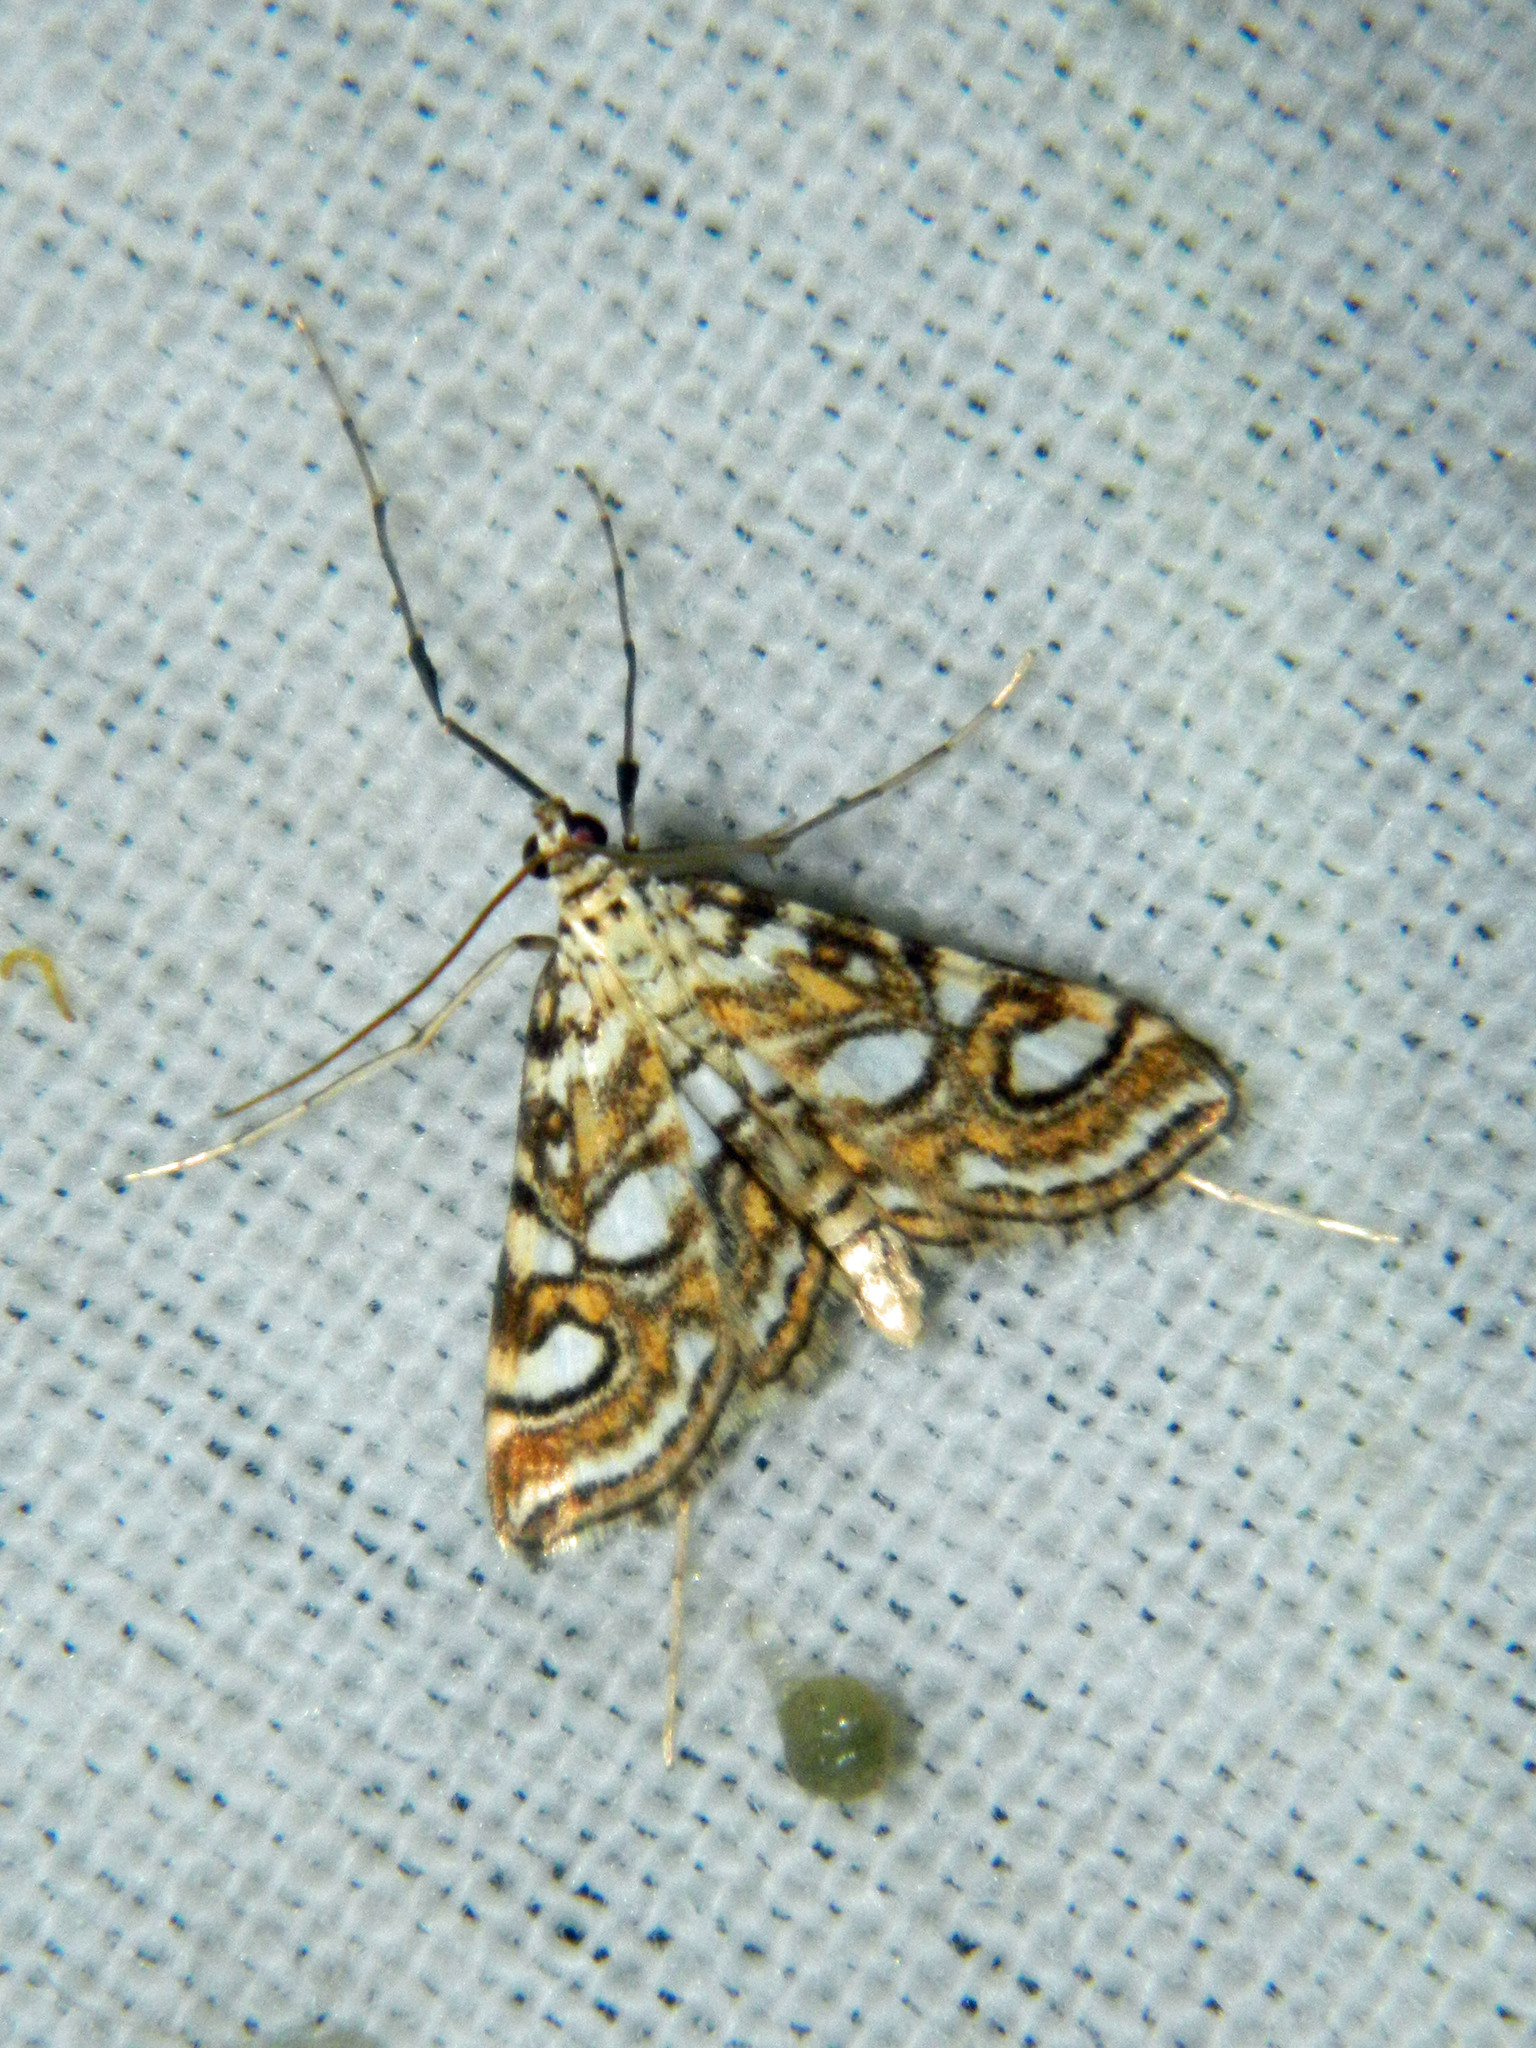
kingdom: Animalia
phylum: Arthropoda
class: Insecta
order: Lepidoptera
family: Crambidae
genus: Elophila
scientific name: Elophila ekthlipsis
